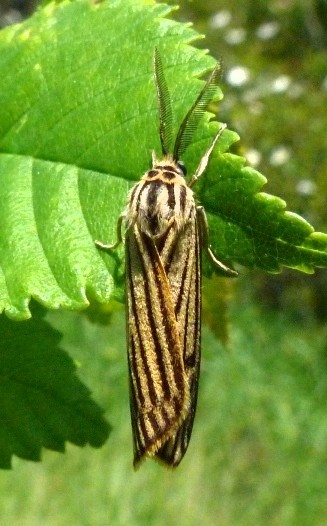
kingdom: Animalia
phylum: Arthropoda
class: Insecta
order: Lepidoptera
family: Erebidae
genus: Coscinia
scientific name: Coscinia Spiris striata
